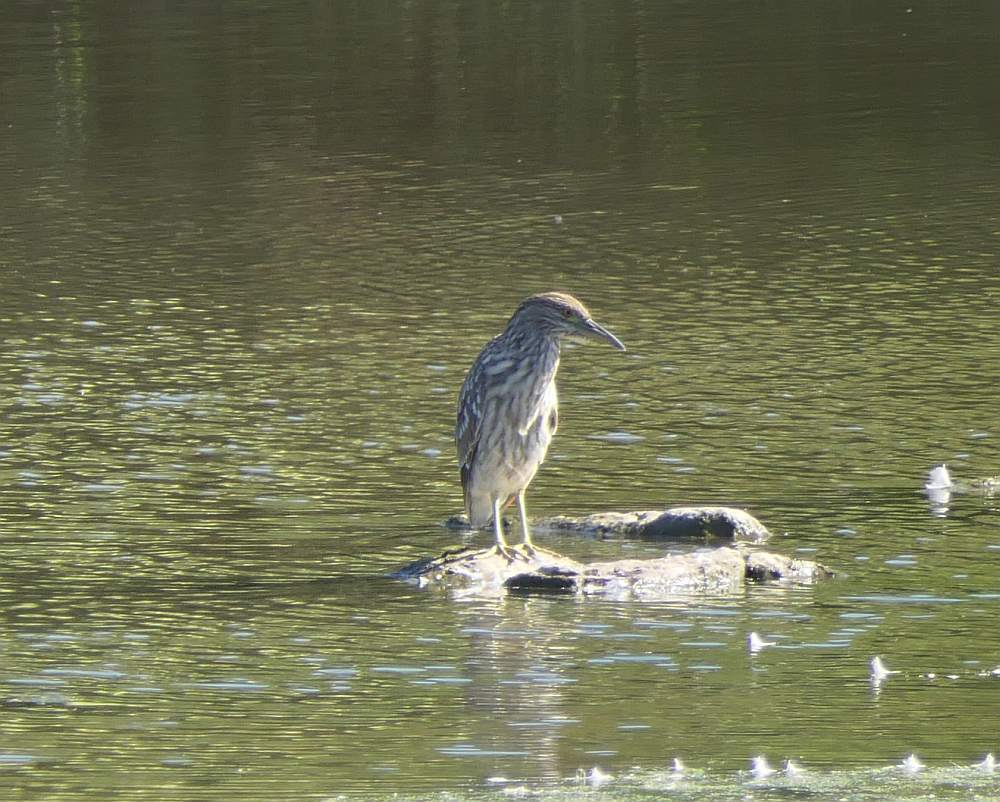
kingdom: Animalia
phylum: Chordata
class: Aves
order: Pelecaniformes
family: Ardeidae
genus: Nycticorax
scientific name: Nycticorax nycticorax
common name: Black-crowned night heron
